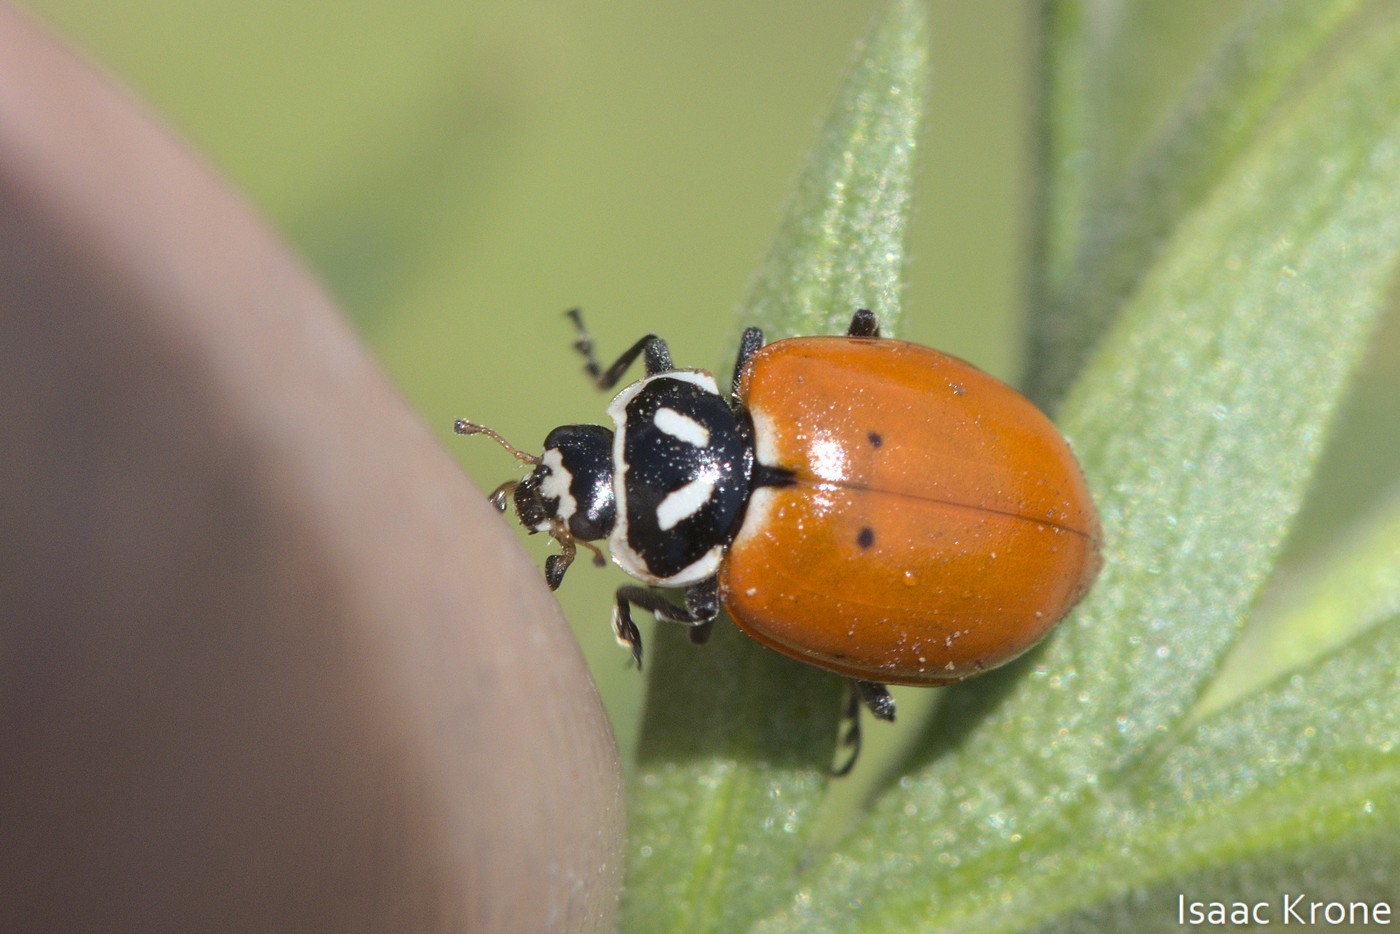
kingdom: Animalia
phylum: Arthropoda
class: Insecta
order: Coleoptera
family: Coccinellidae
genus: Hippodamia
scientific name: Hippodamia convergens
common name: Convergent lady beetle
